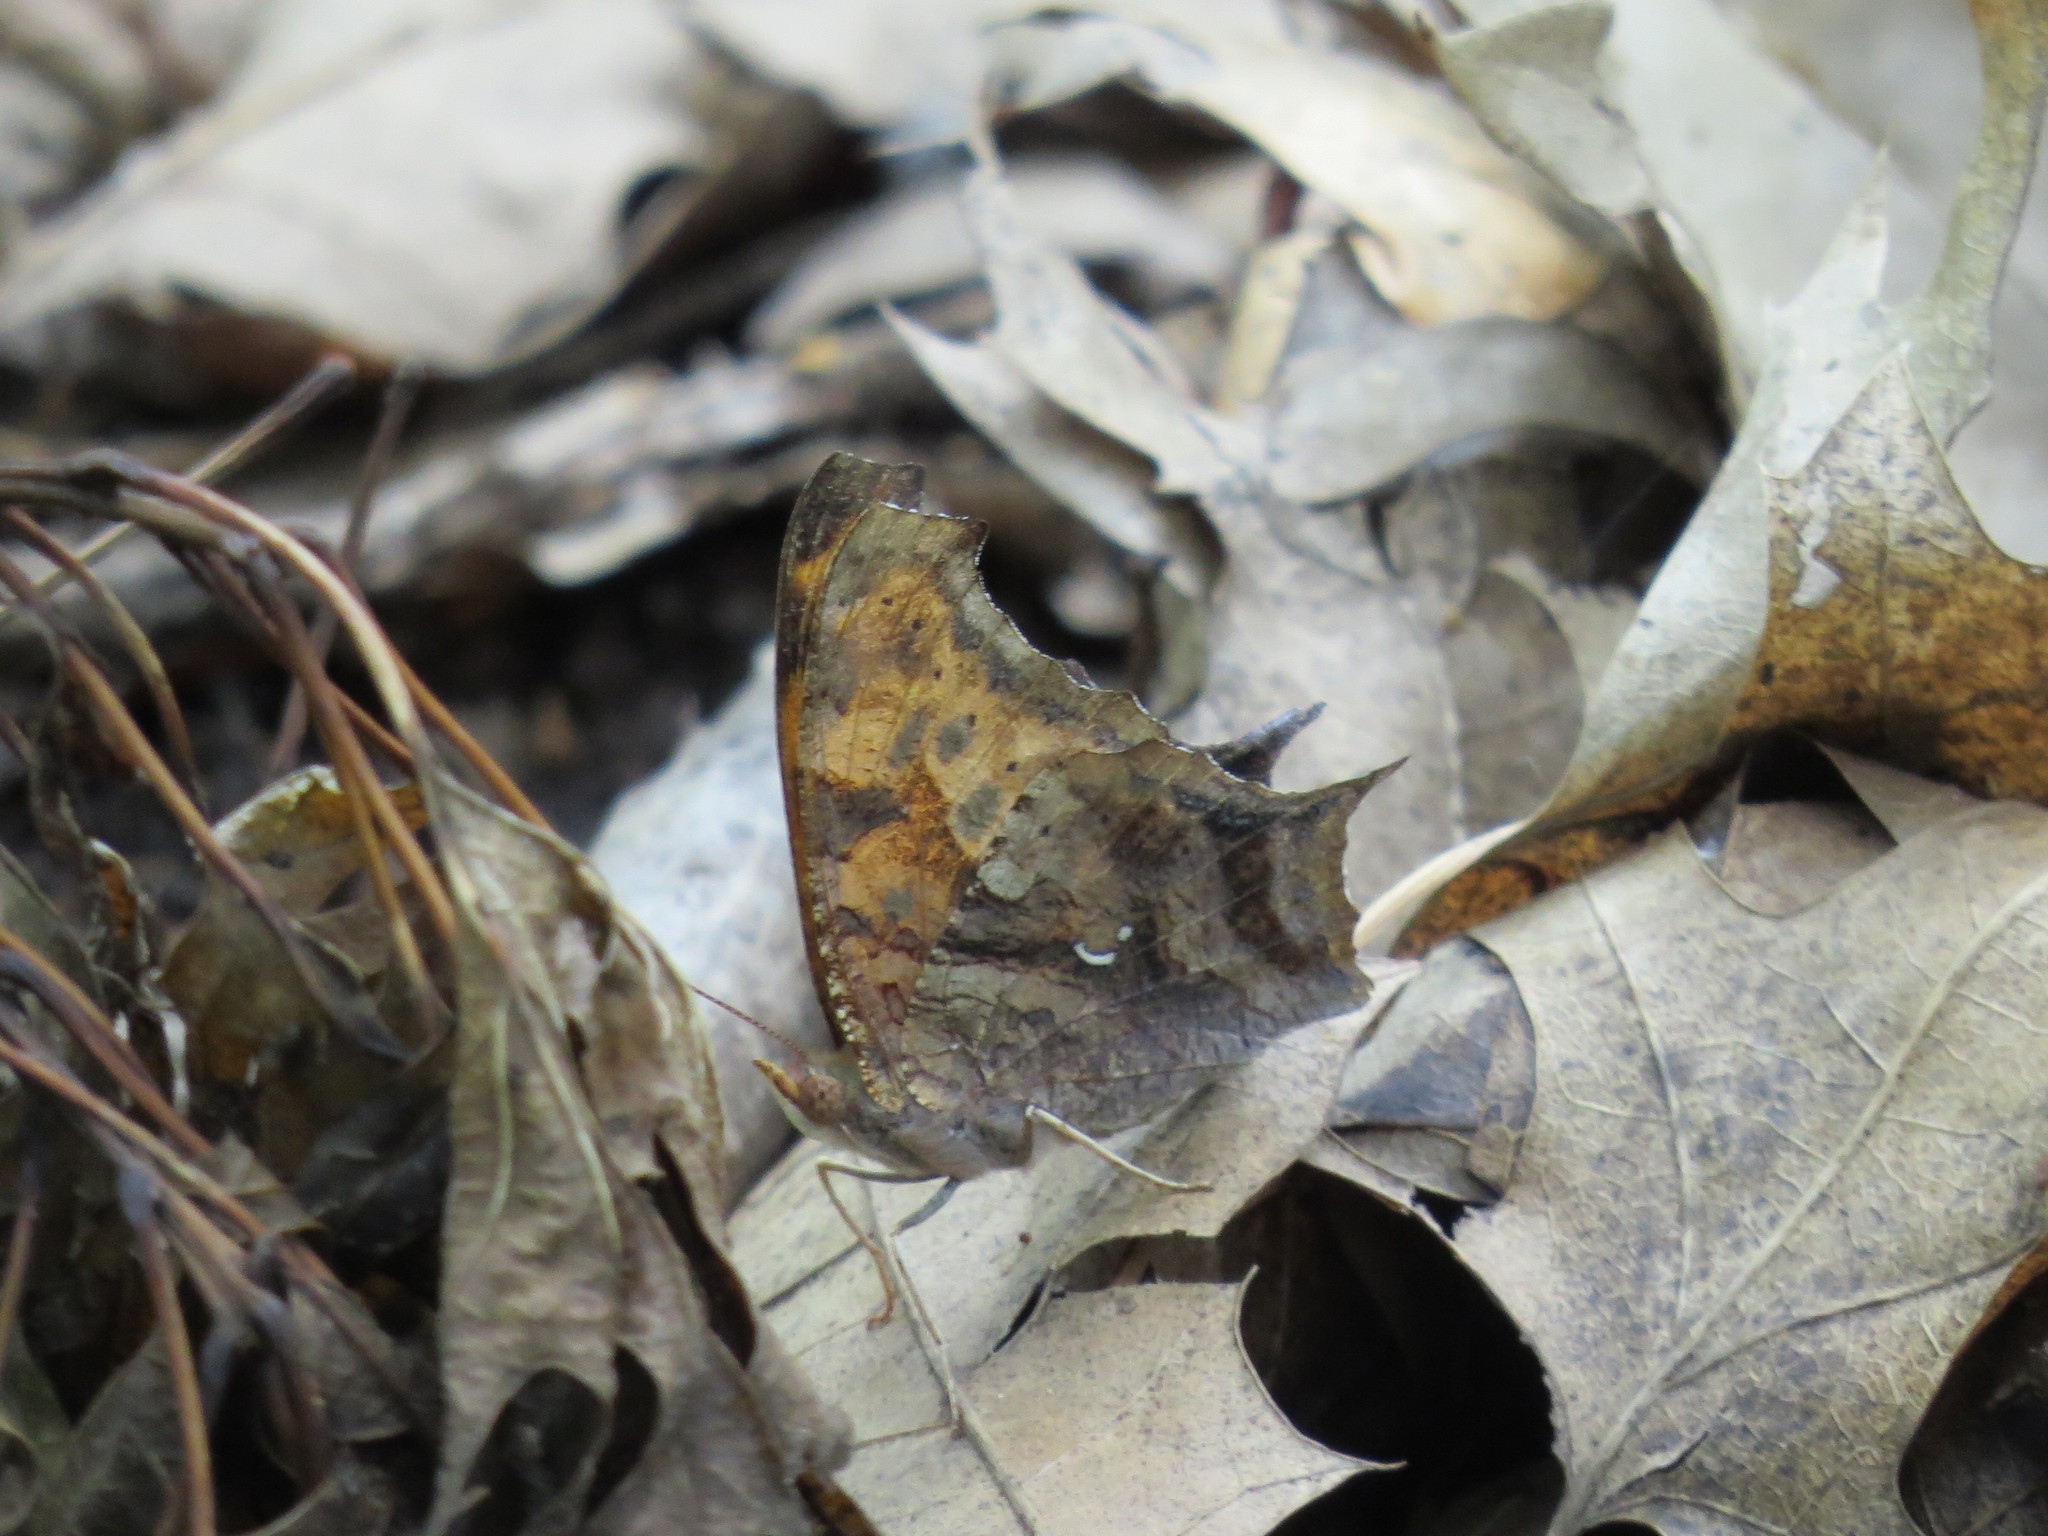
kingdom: Animalia
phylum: Arthropoda
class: Insecta
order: Lepidoptera
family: Nymphalidae
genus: Polygonia
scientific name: Polygonia interrogationis
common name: Question mark
